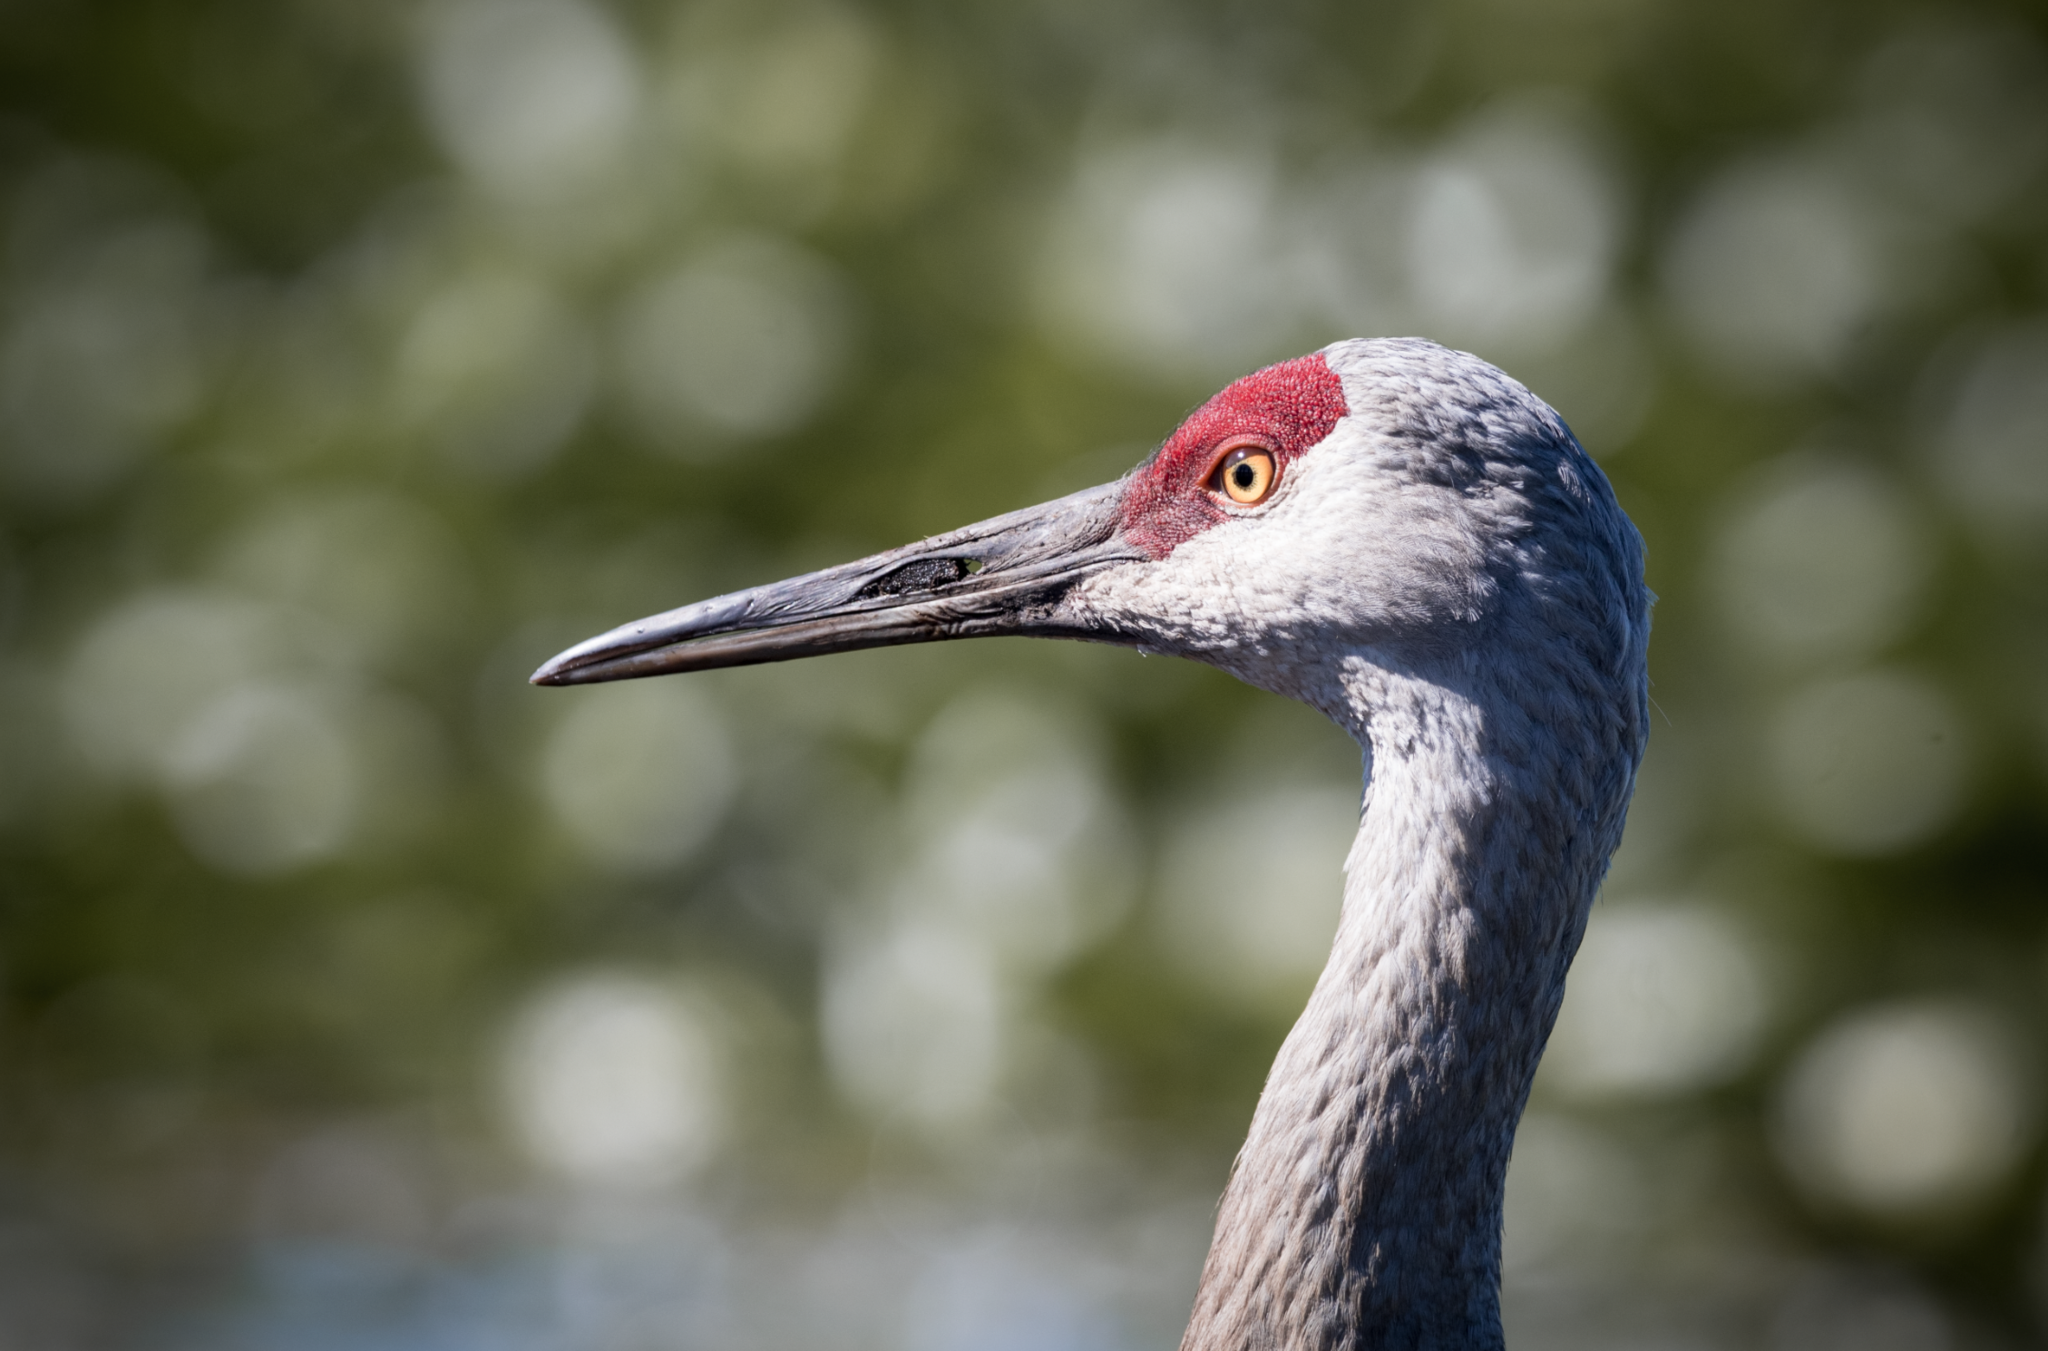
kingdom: Animalia
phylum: Chordata
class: Aves
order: Gruiformes
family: Gruidae
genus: Grus
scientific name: Grus canadensis
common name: Sandhill crane
